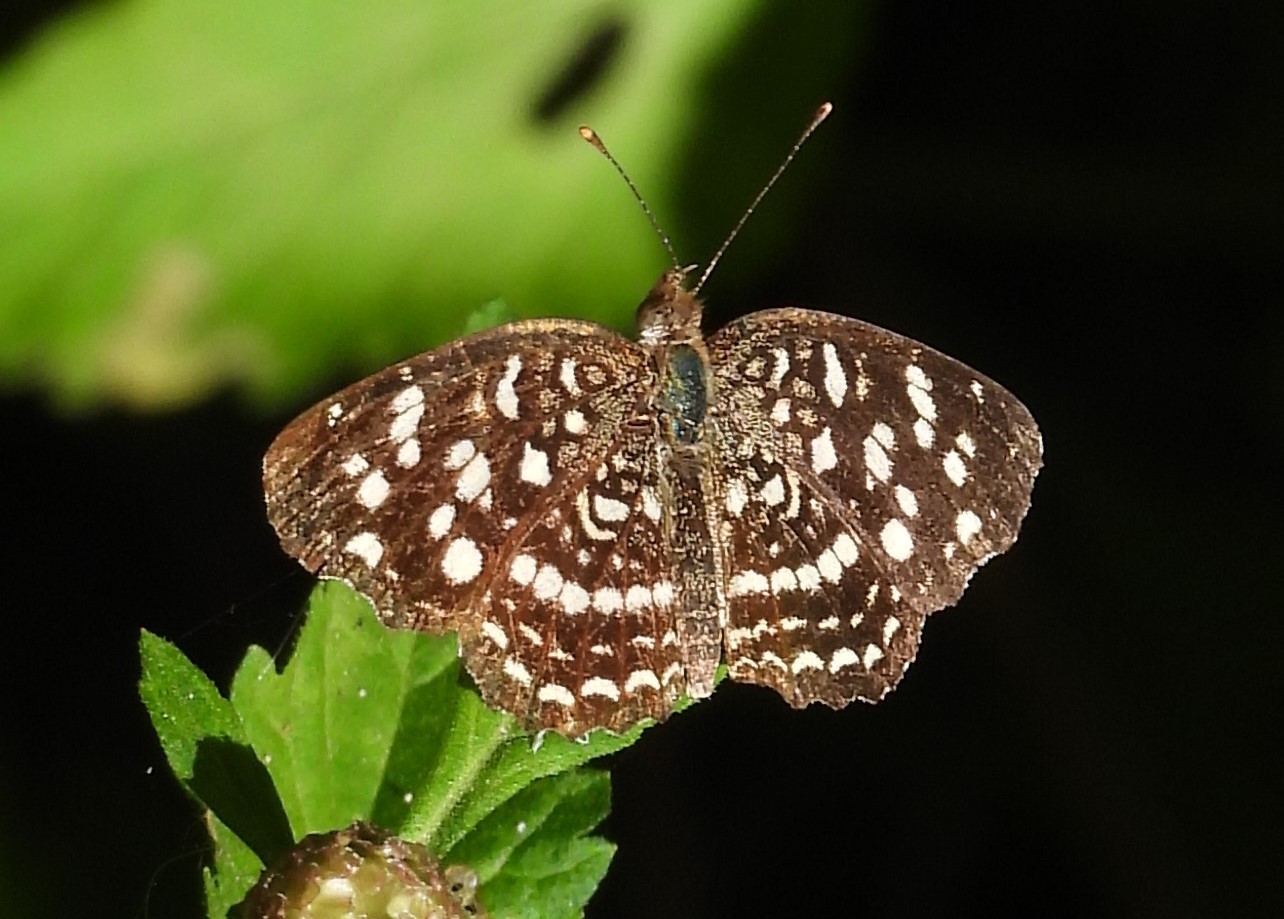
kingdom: Animalia
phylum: Arthropoda
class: Insecta
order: Lepidoptera
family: Nymphalidae
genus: Anthanassa
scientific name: Anthanassa hermas
